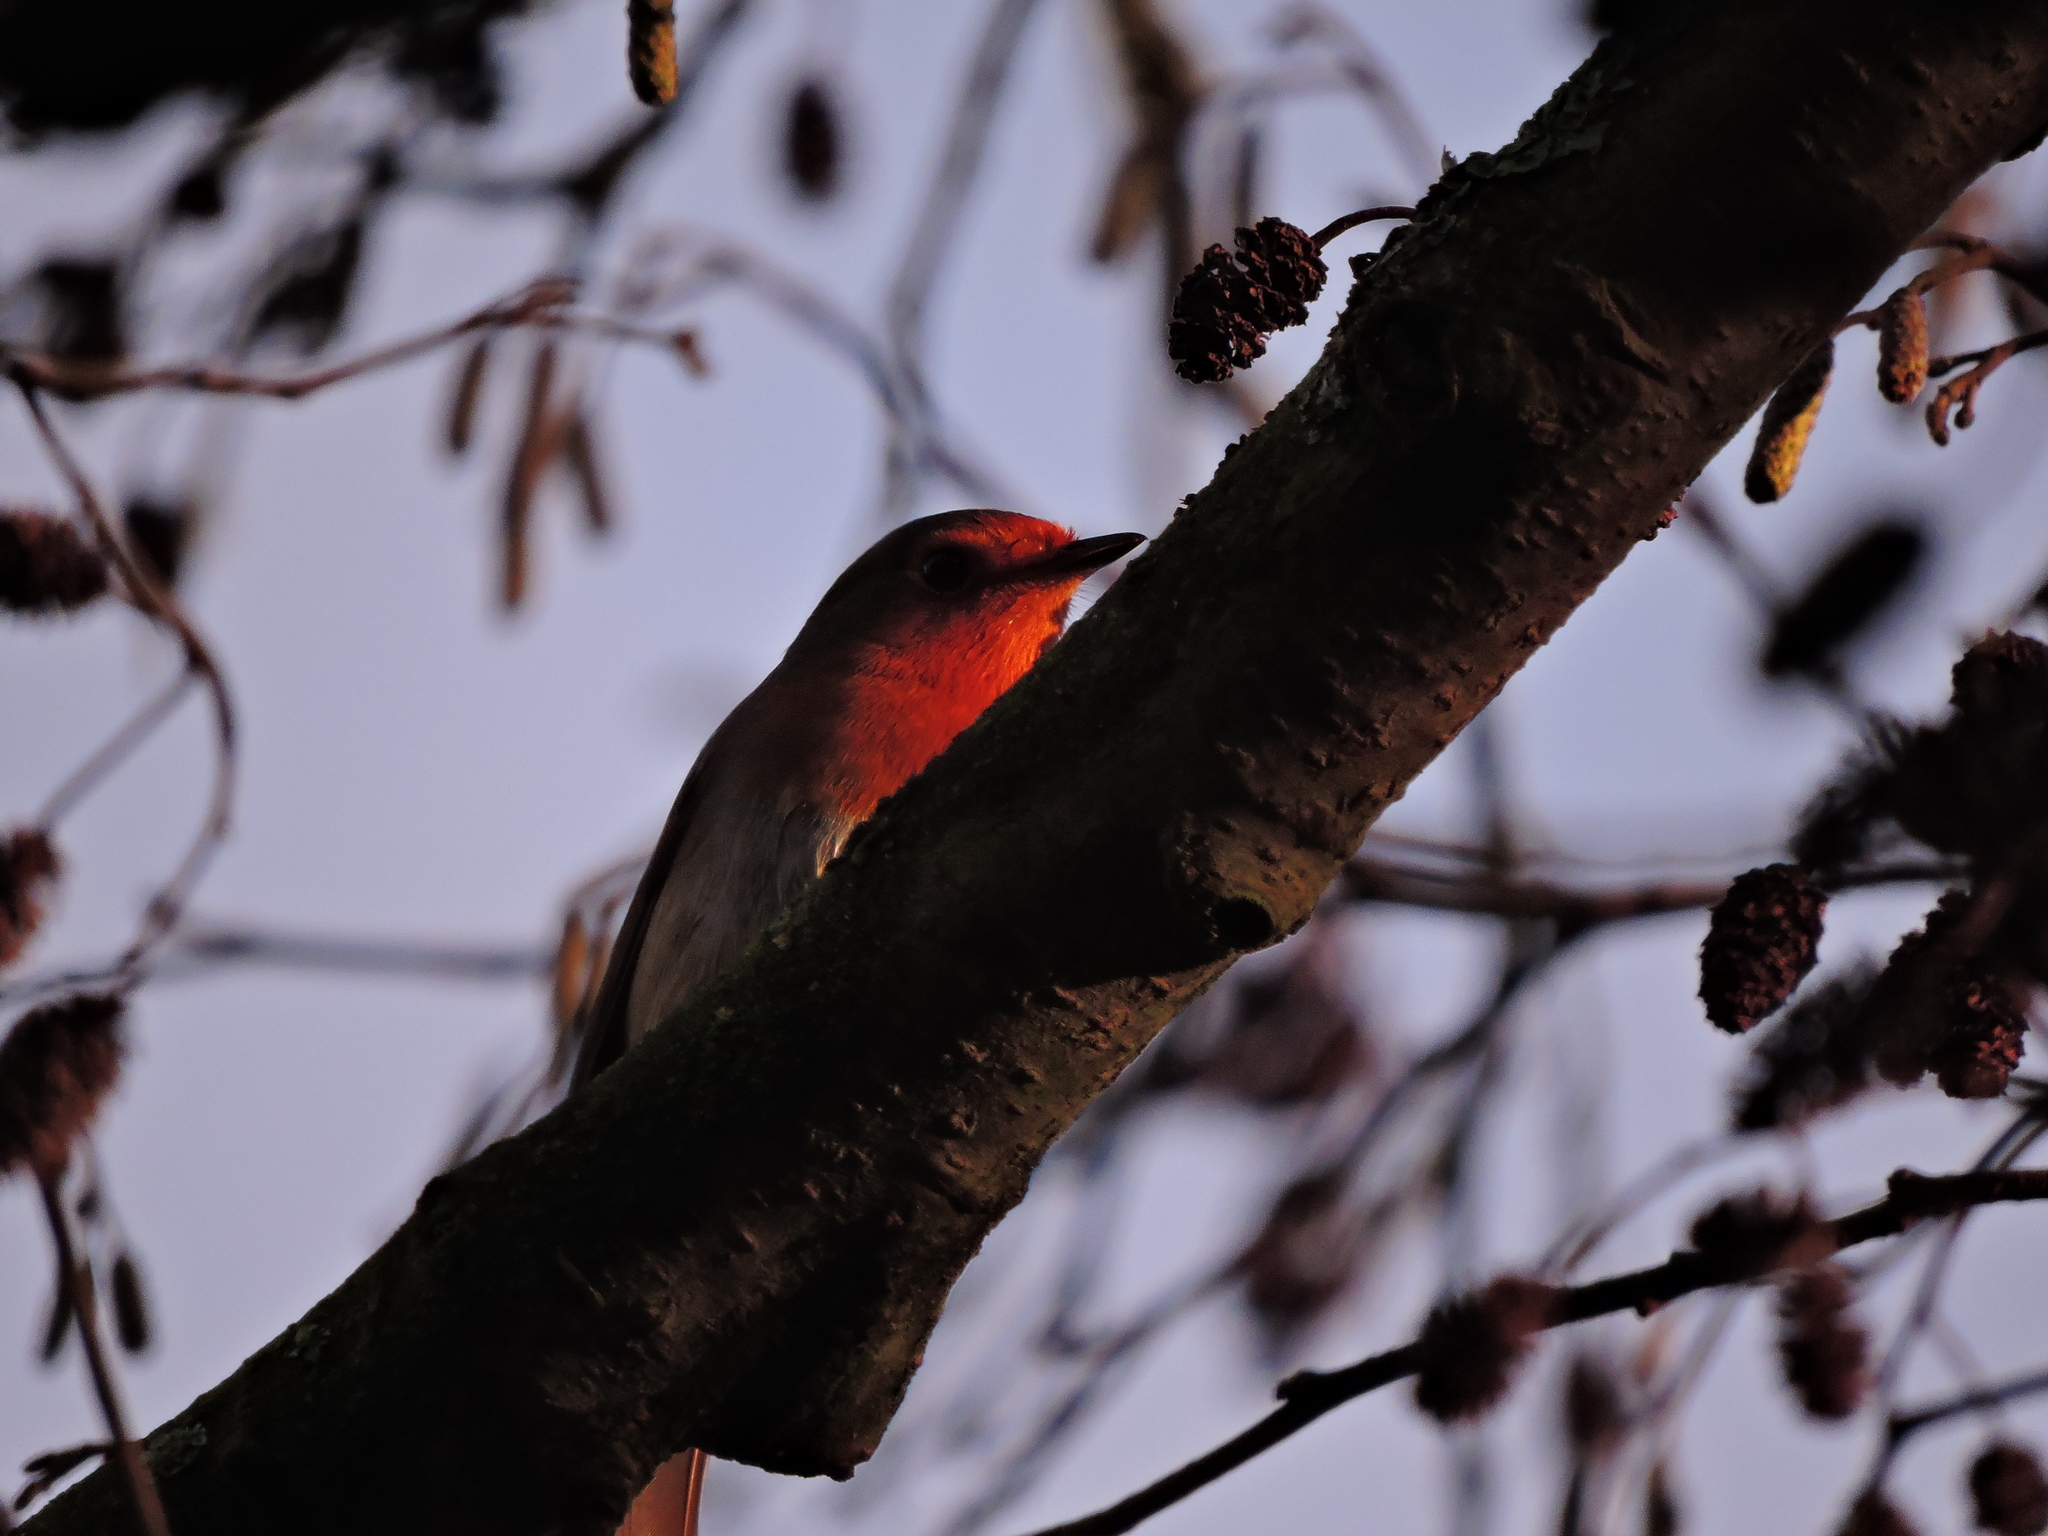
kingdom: Animalia
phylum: Chordata
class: Aves
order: Passeriformes
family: Muscicapidae
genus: Erithacus
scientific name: Erithacus rubecula
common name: European robin
